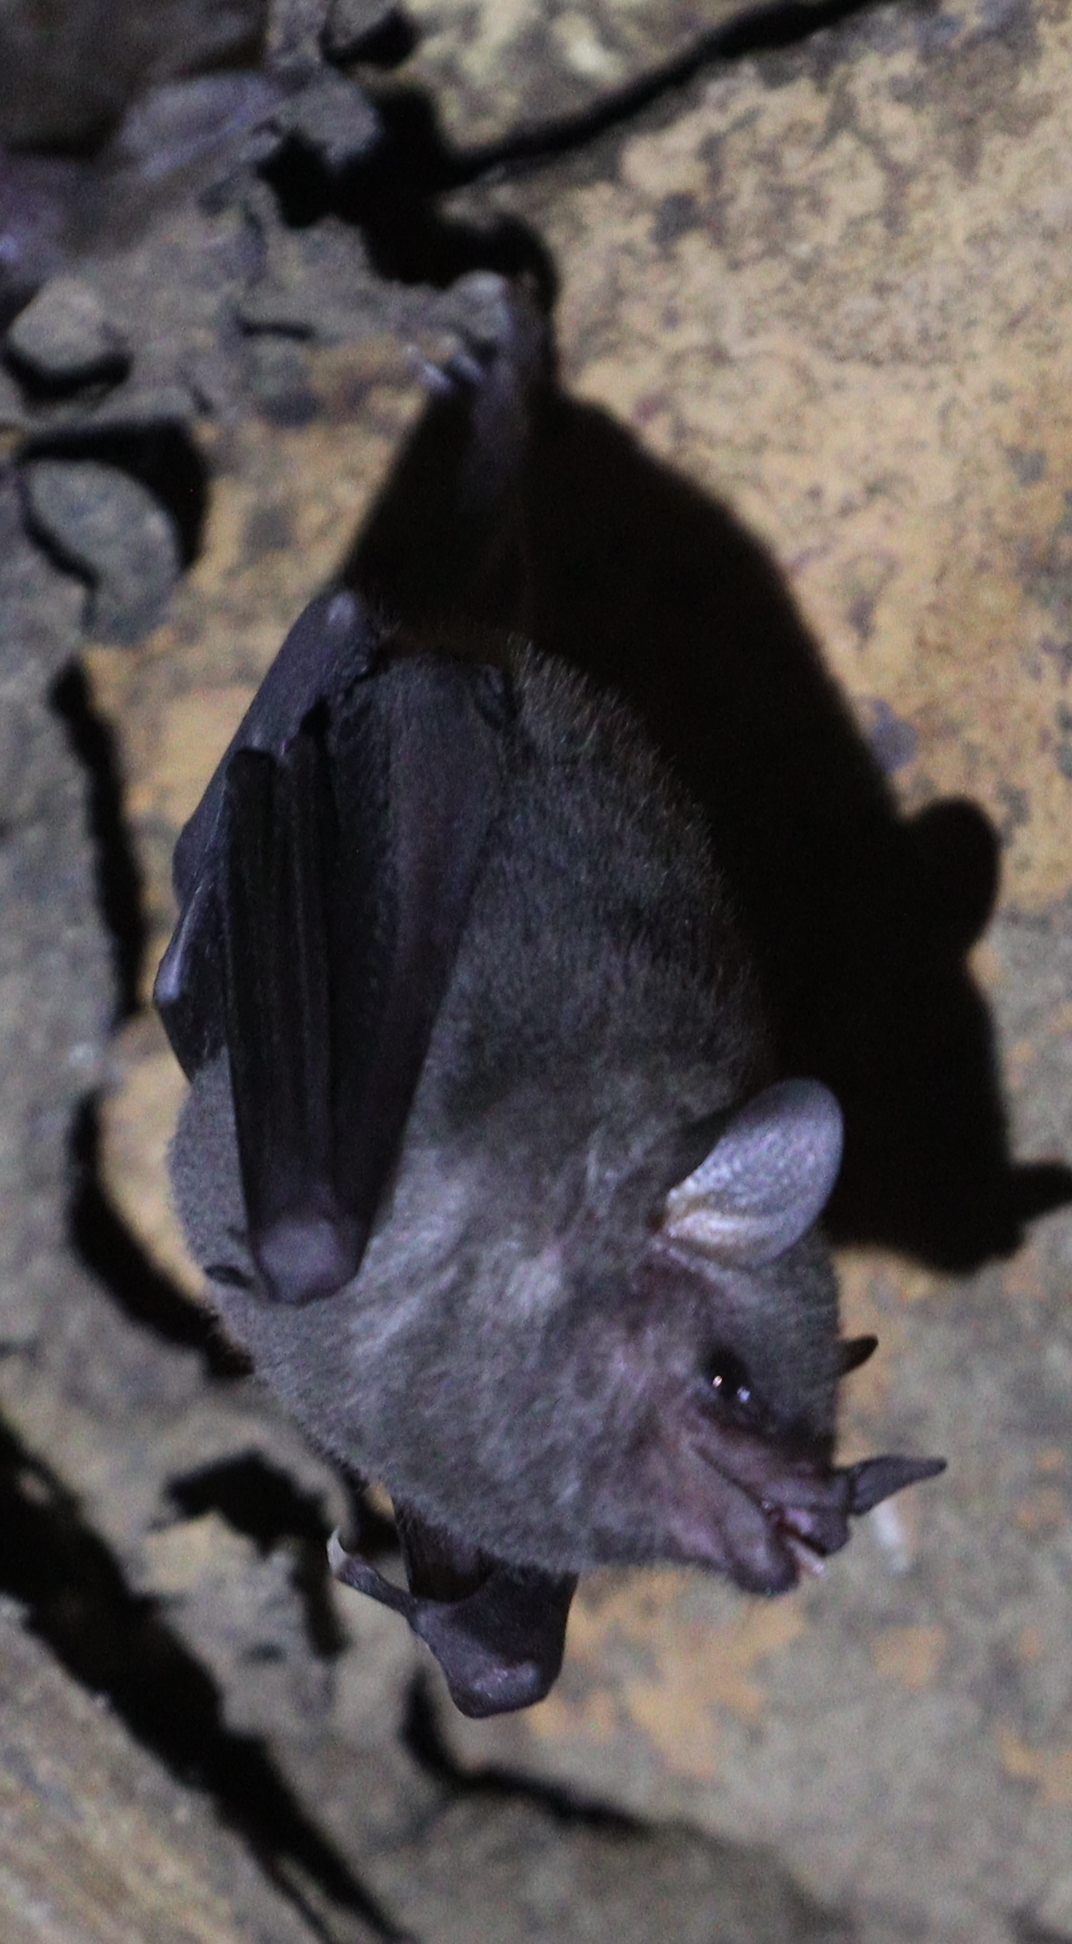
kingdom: Animalia
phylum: Chordata
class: Mammalia
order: Chiroptera
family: Phyllostomidae
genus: Glossophaga
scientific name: Glossophaga soricina
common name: Pallas's long-tongued bat
